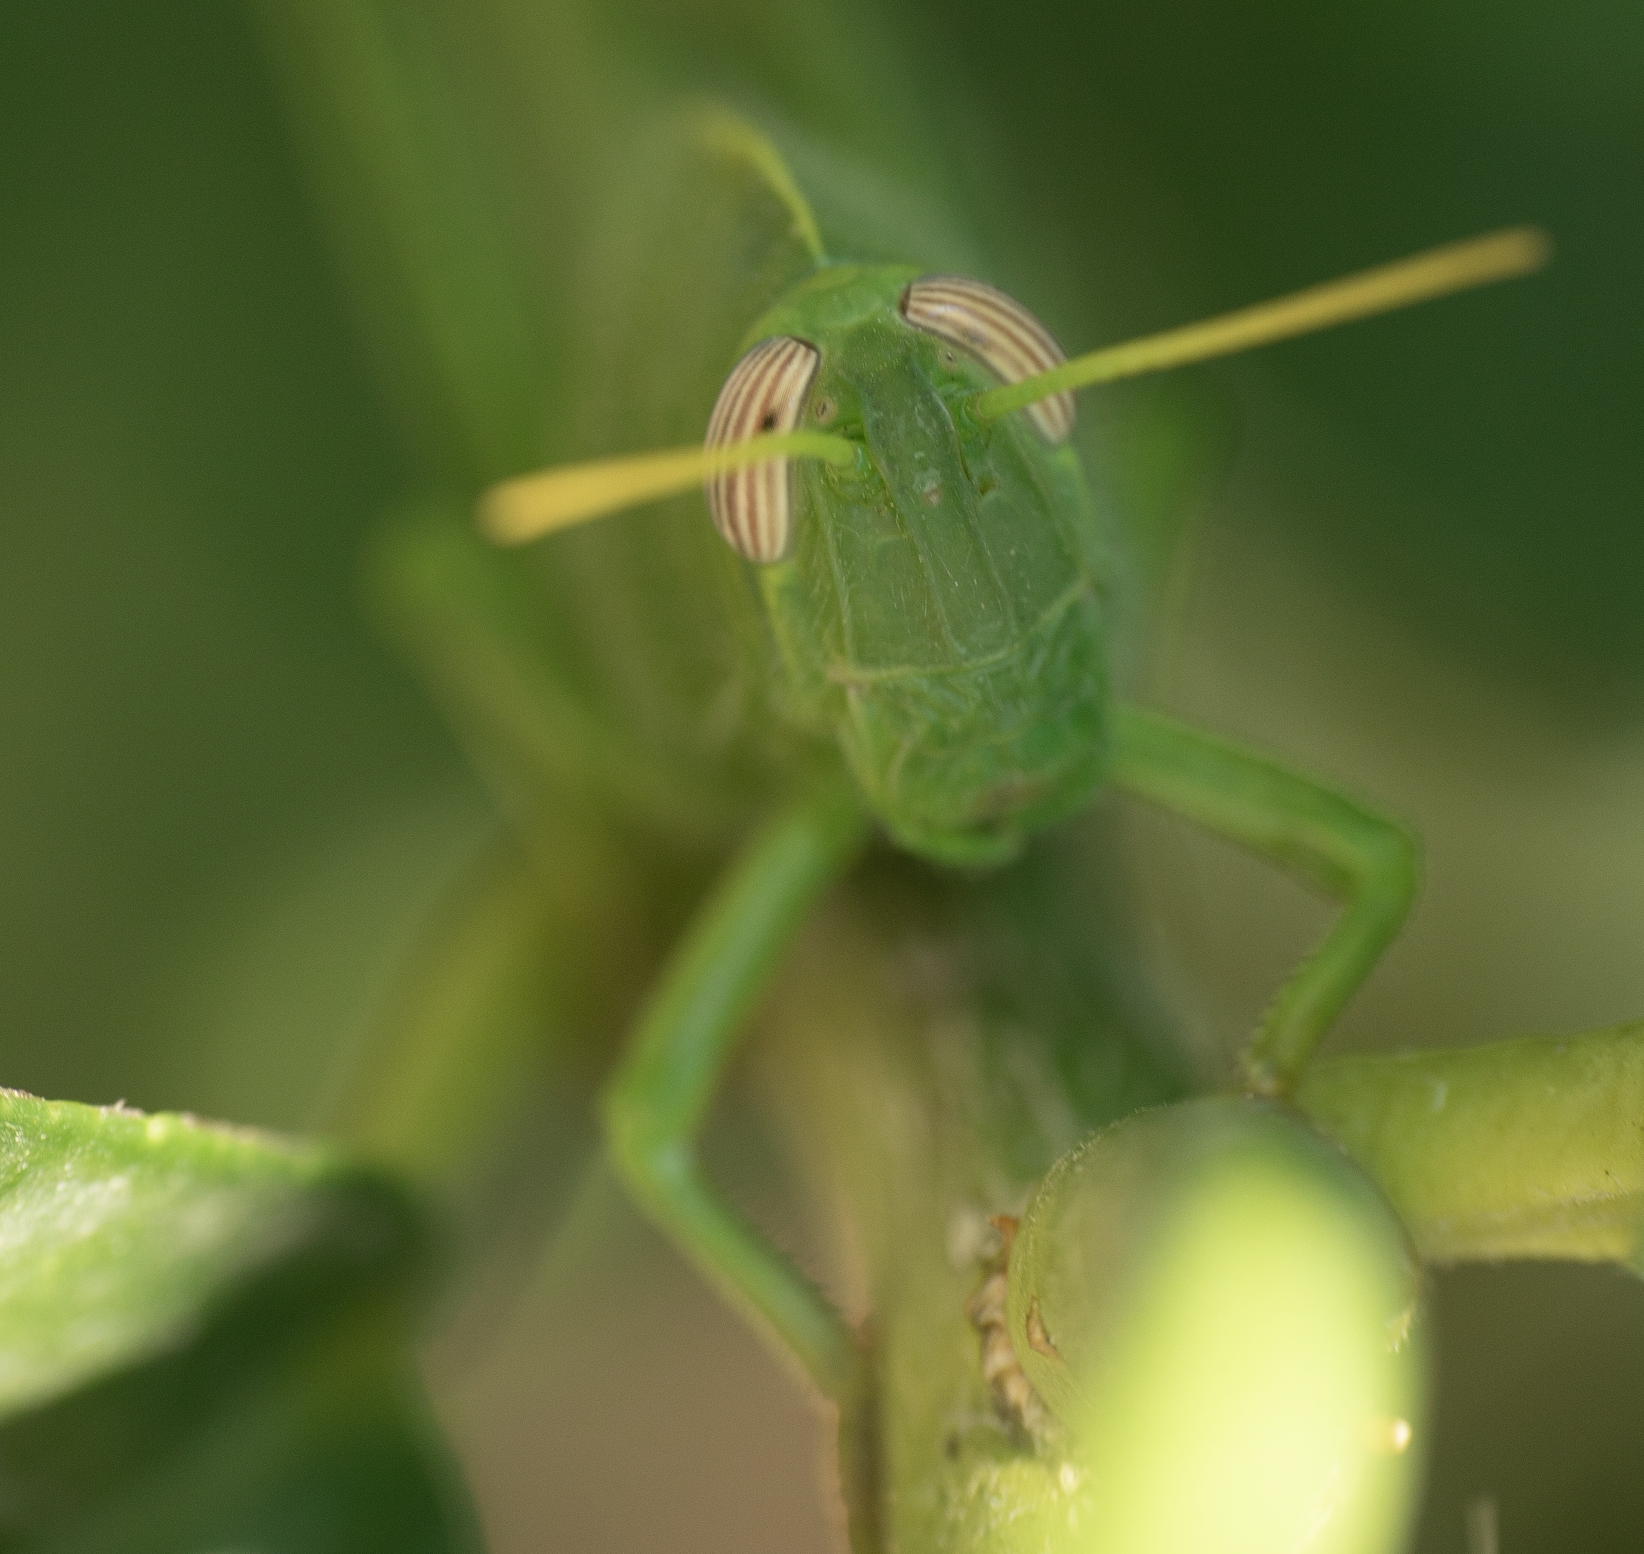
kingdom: Animalia
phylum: Arthropoda
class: Insecta
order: Orthoptera
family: Acrididae
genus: Anacridium
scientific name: Anacridium aegyptium
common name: Egyptian grasshopper
